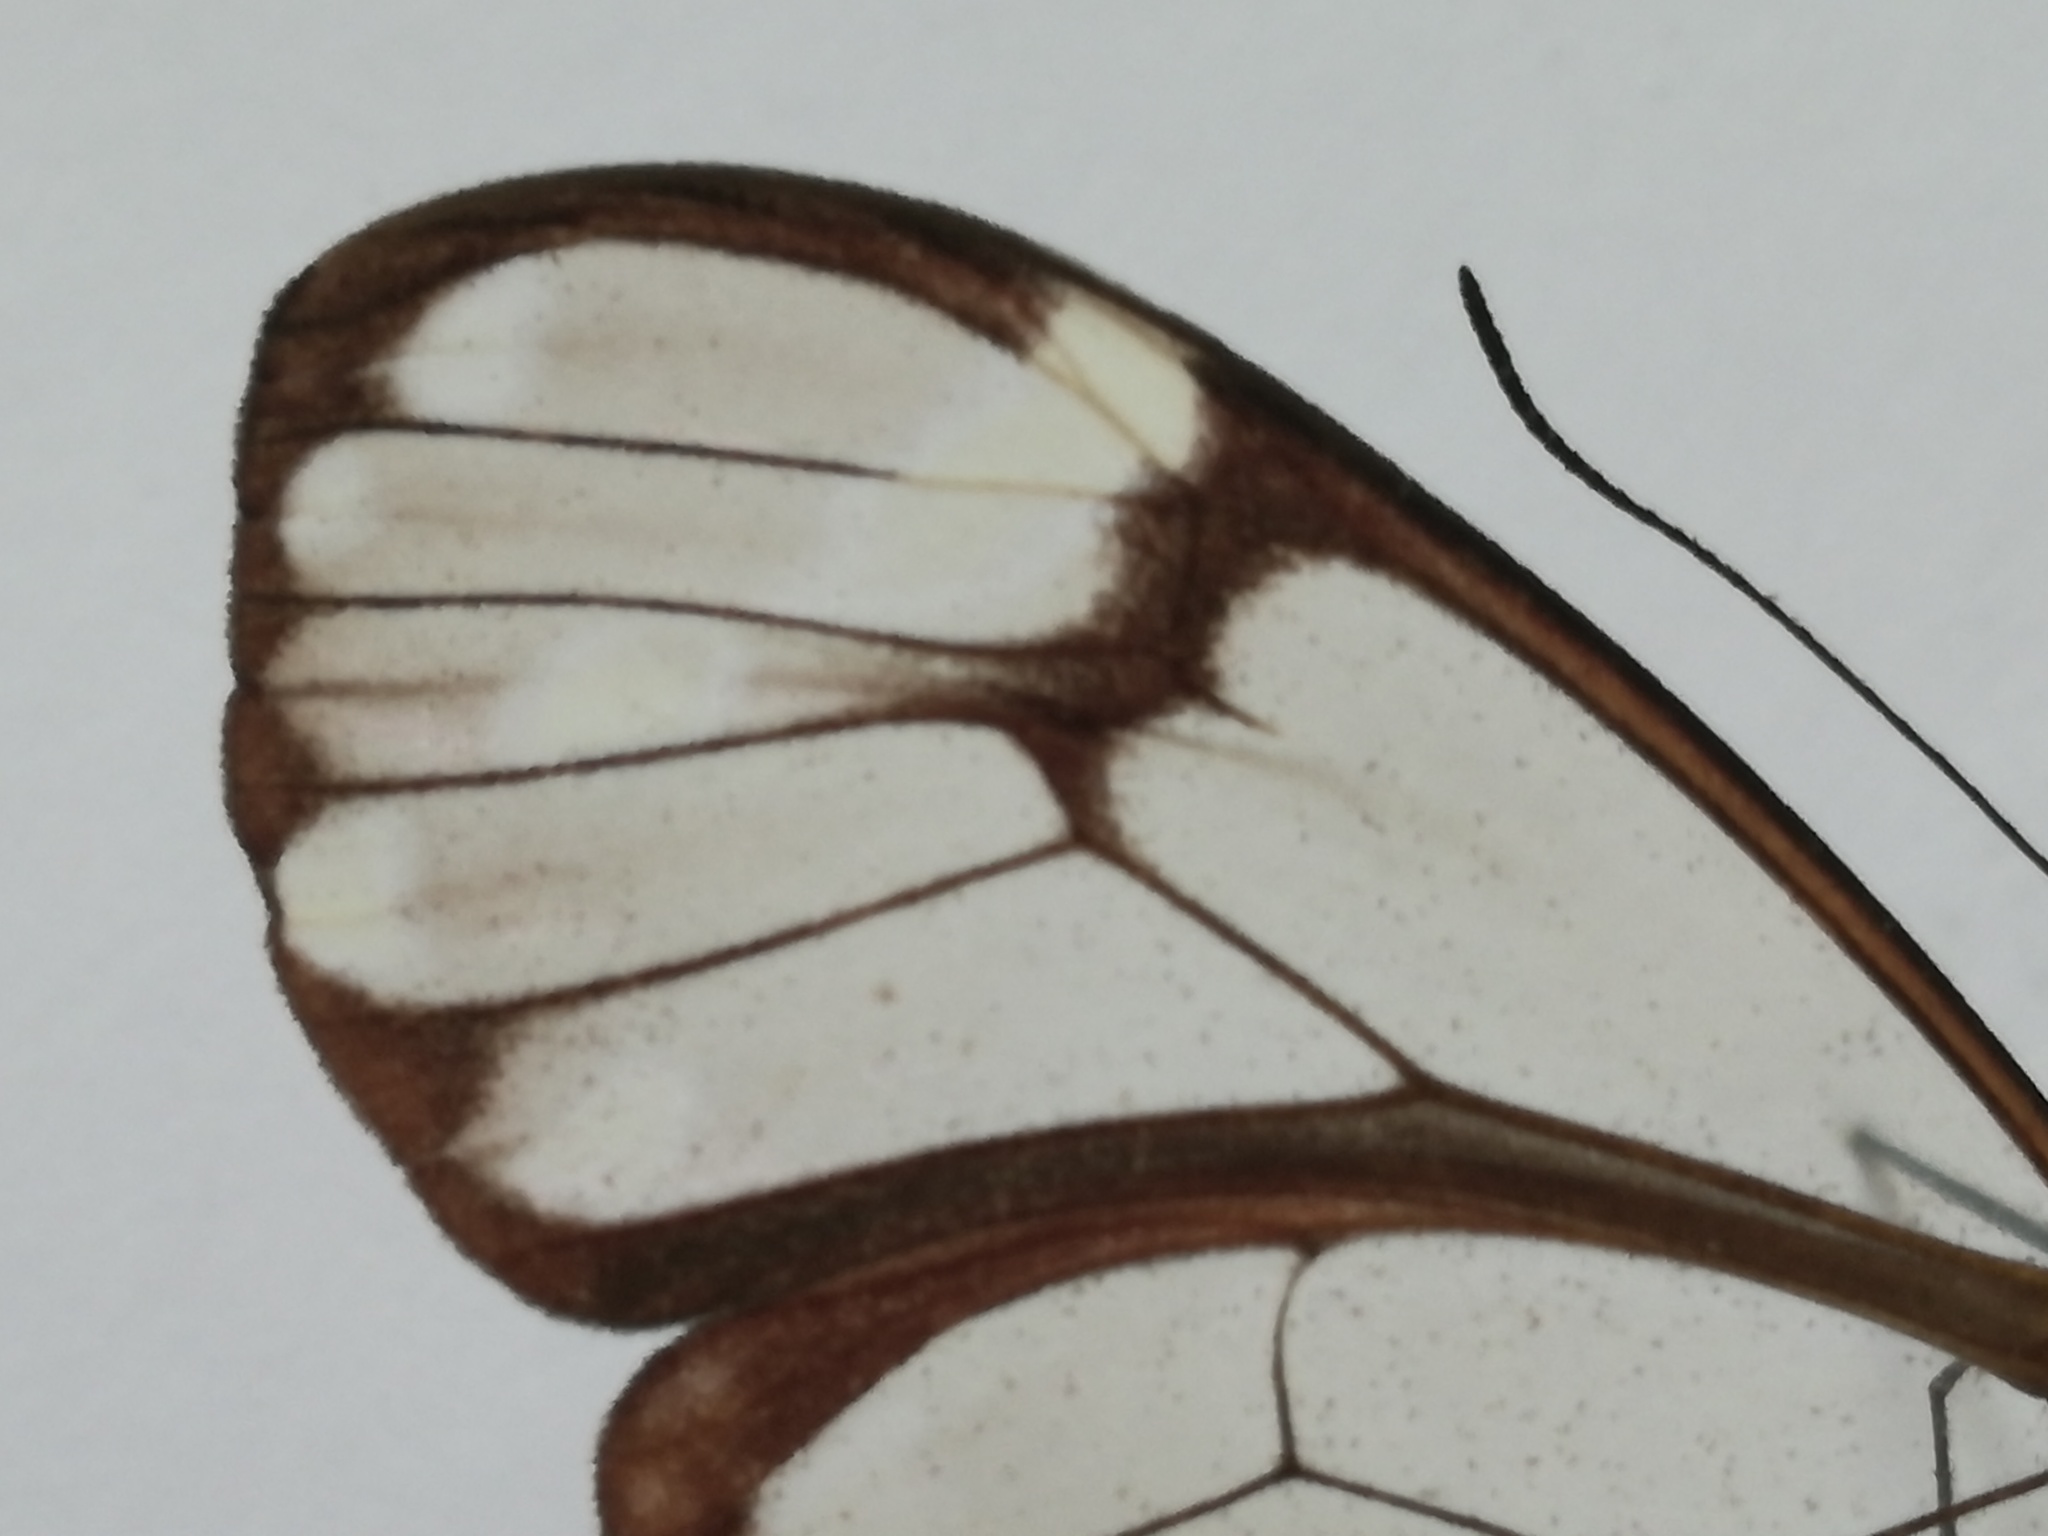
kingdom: Animalia
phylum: Arthropoda
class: Insecta
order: Lepidoptera
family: Nymphalidae
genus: Greta
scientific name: Greta annette
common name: White-spotted clearwing
